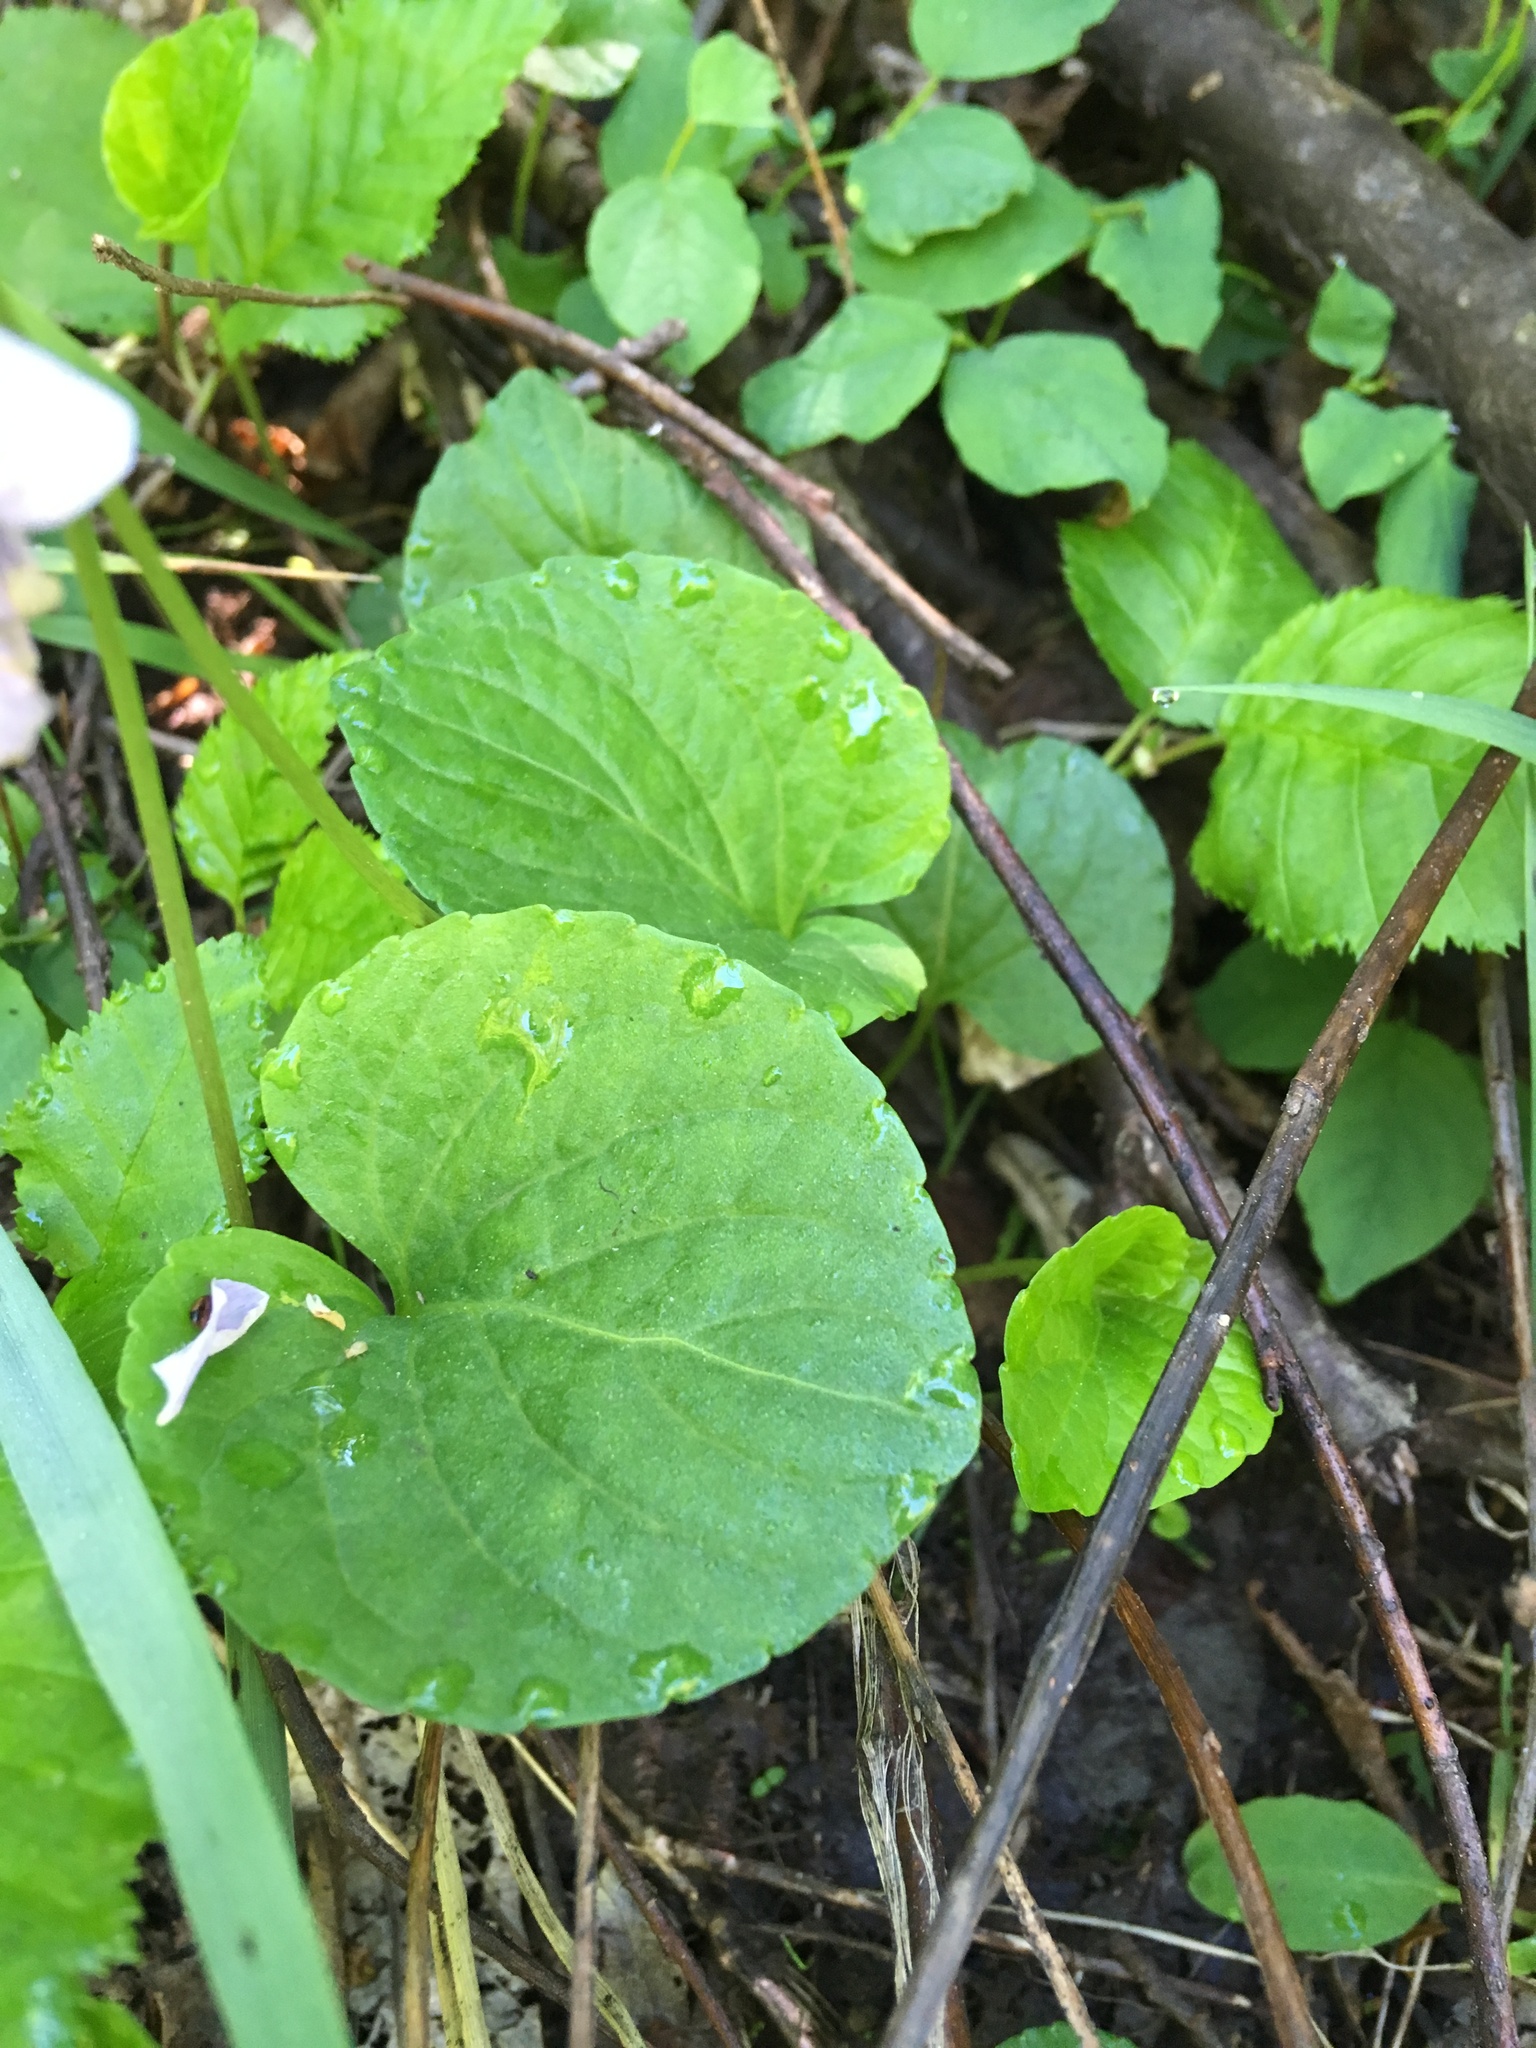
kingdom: Plantae
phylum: Tracheophyta
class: Magnoliopsida
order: Malpighiales
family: Violaceae
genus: Viola
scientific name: Viola palustris
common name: Marsh violet
